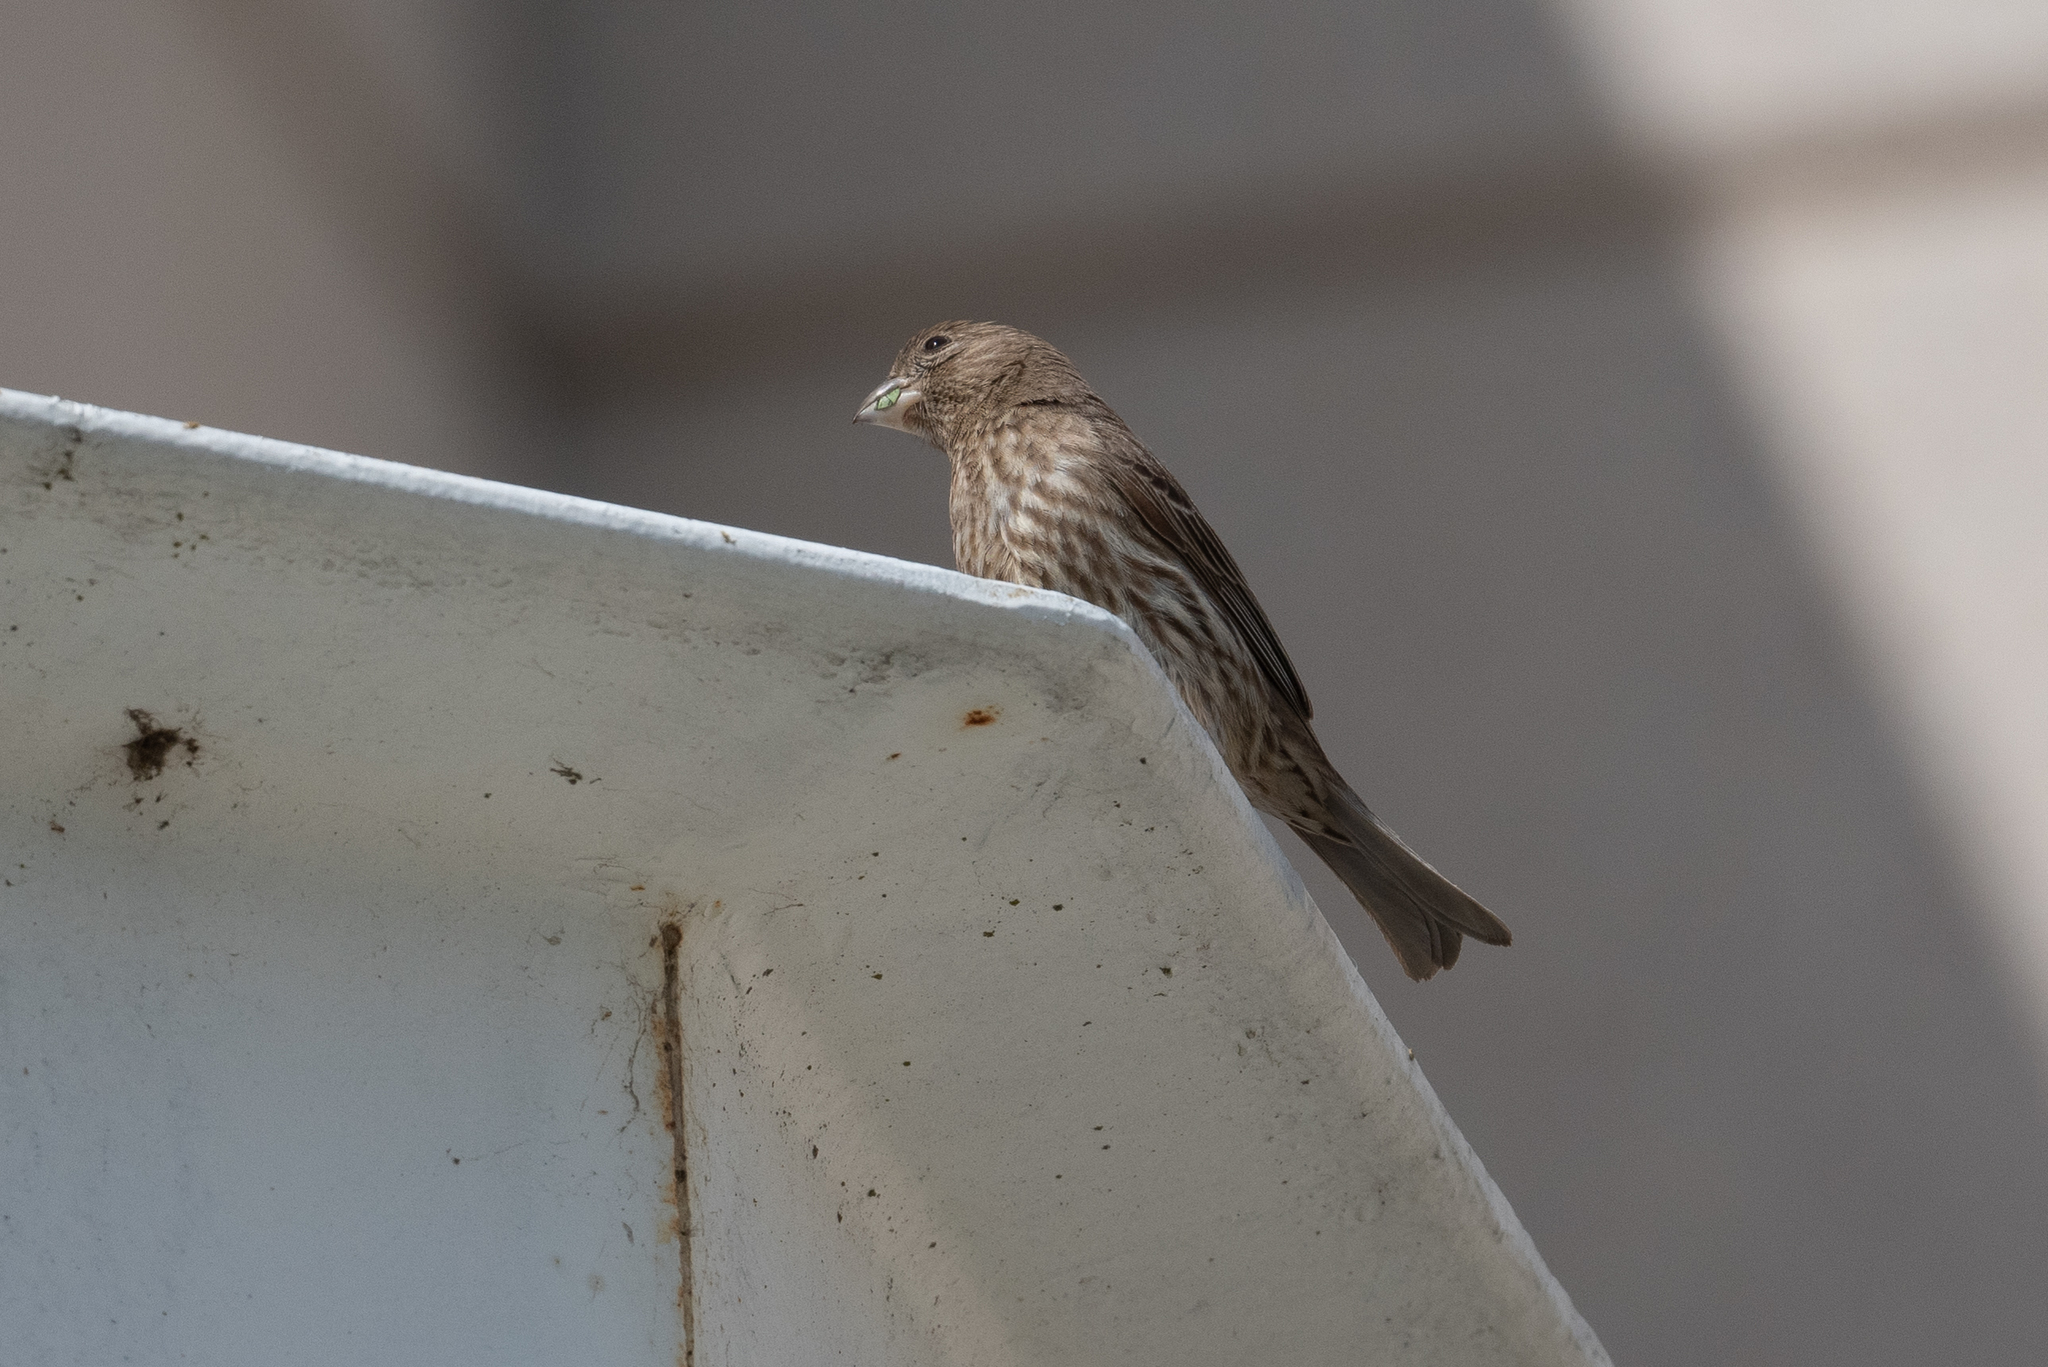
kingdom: Animalia
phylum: Chordata
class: Aves
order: Passeriformes
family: Fringillidae
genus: Haemorhous
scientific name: Haemorhous mexicanus
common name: House finch
